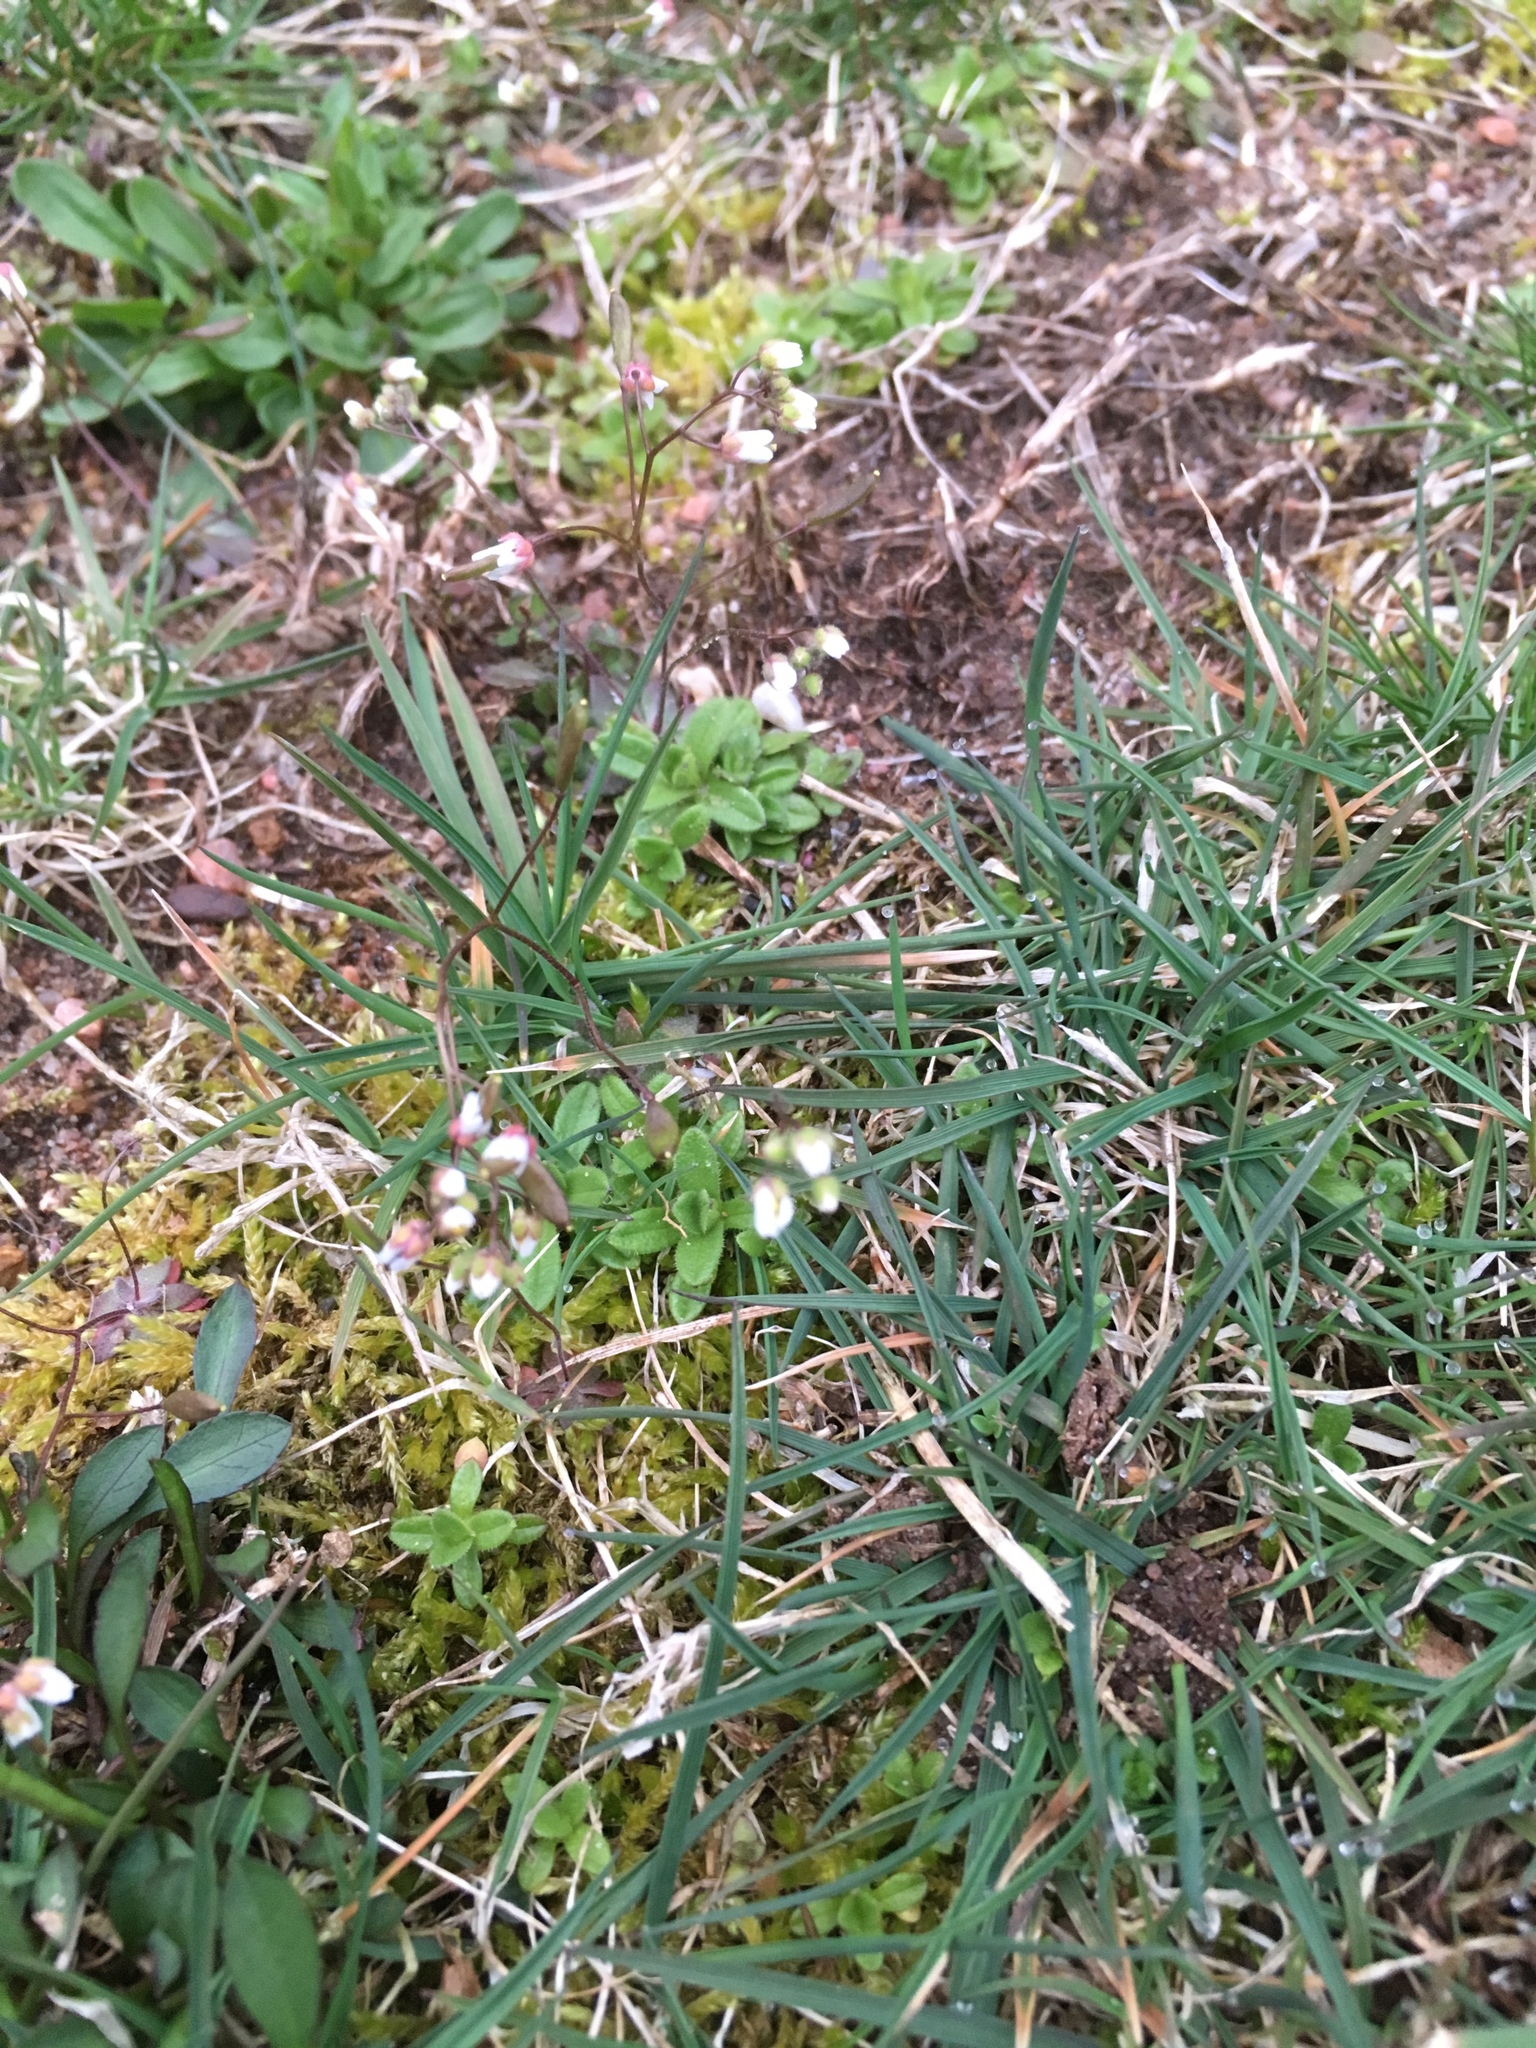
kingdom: Plantae
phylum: Tracheophyta
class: Magnoliopsida
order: Brassicales
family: Brassicaceae
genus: Draba
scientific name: Draba verna
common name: Spring draba
